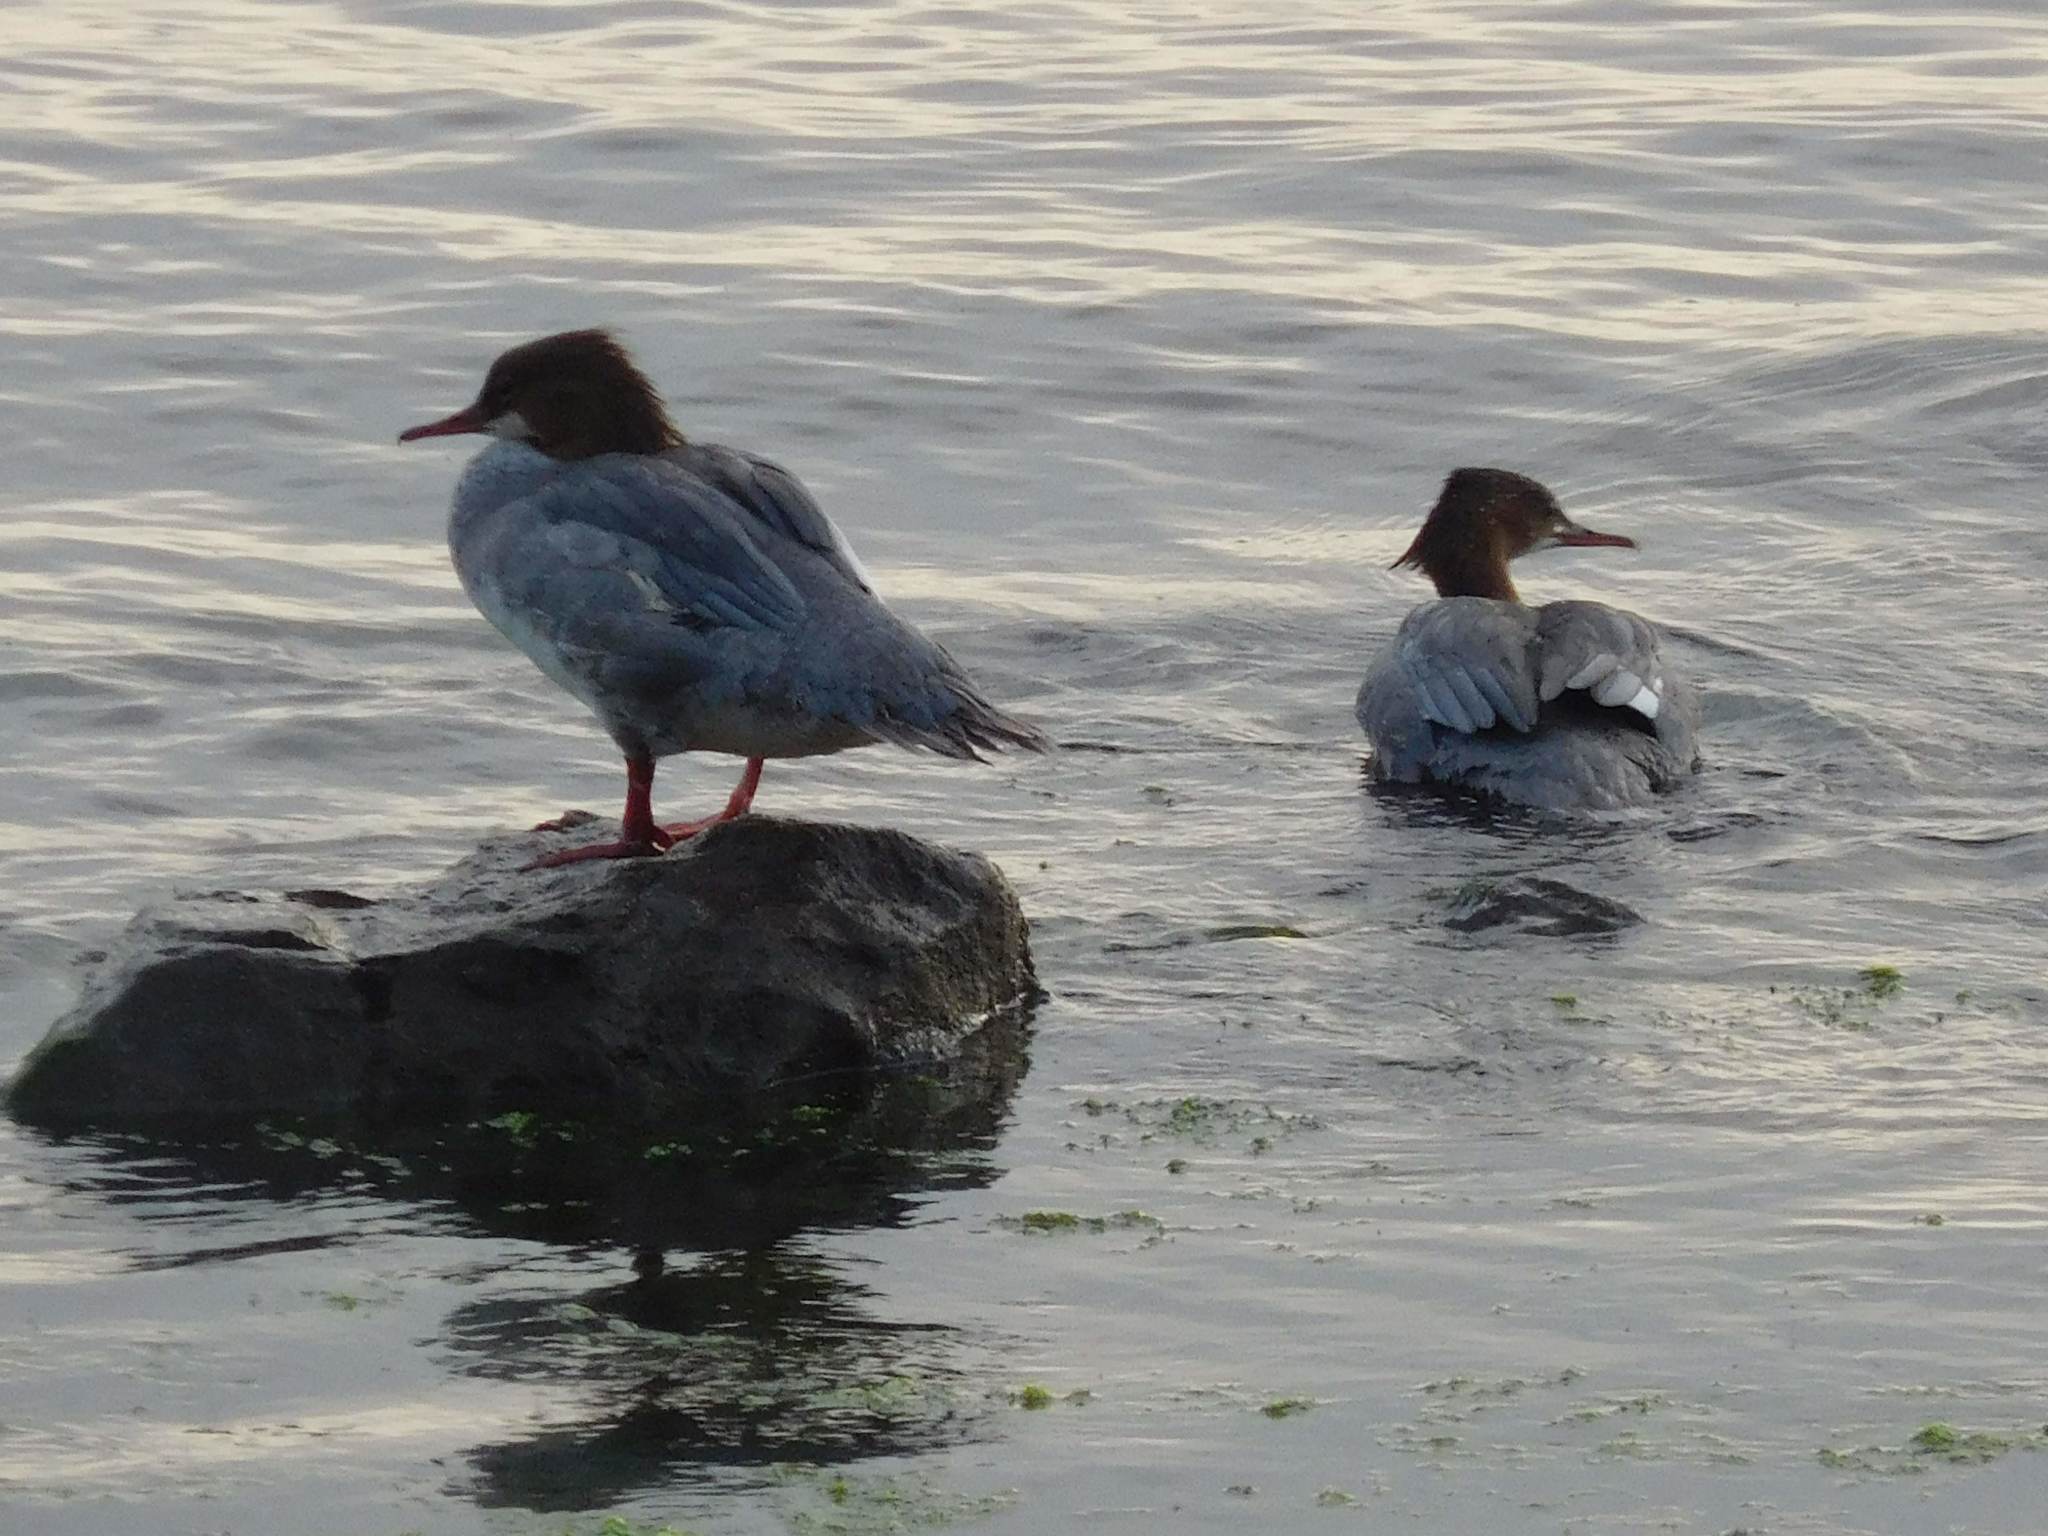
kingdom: Animalia
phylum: Chordata
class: Aves
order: Anseriformes
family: Anatidae
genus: Mergus
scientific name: Mergus merganser
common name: Common merganser
